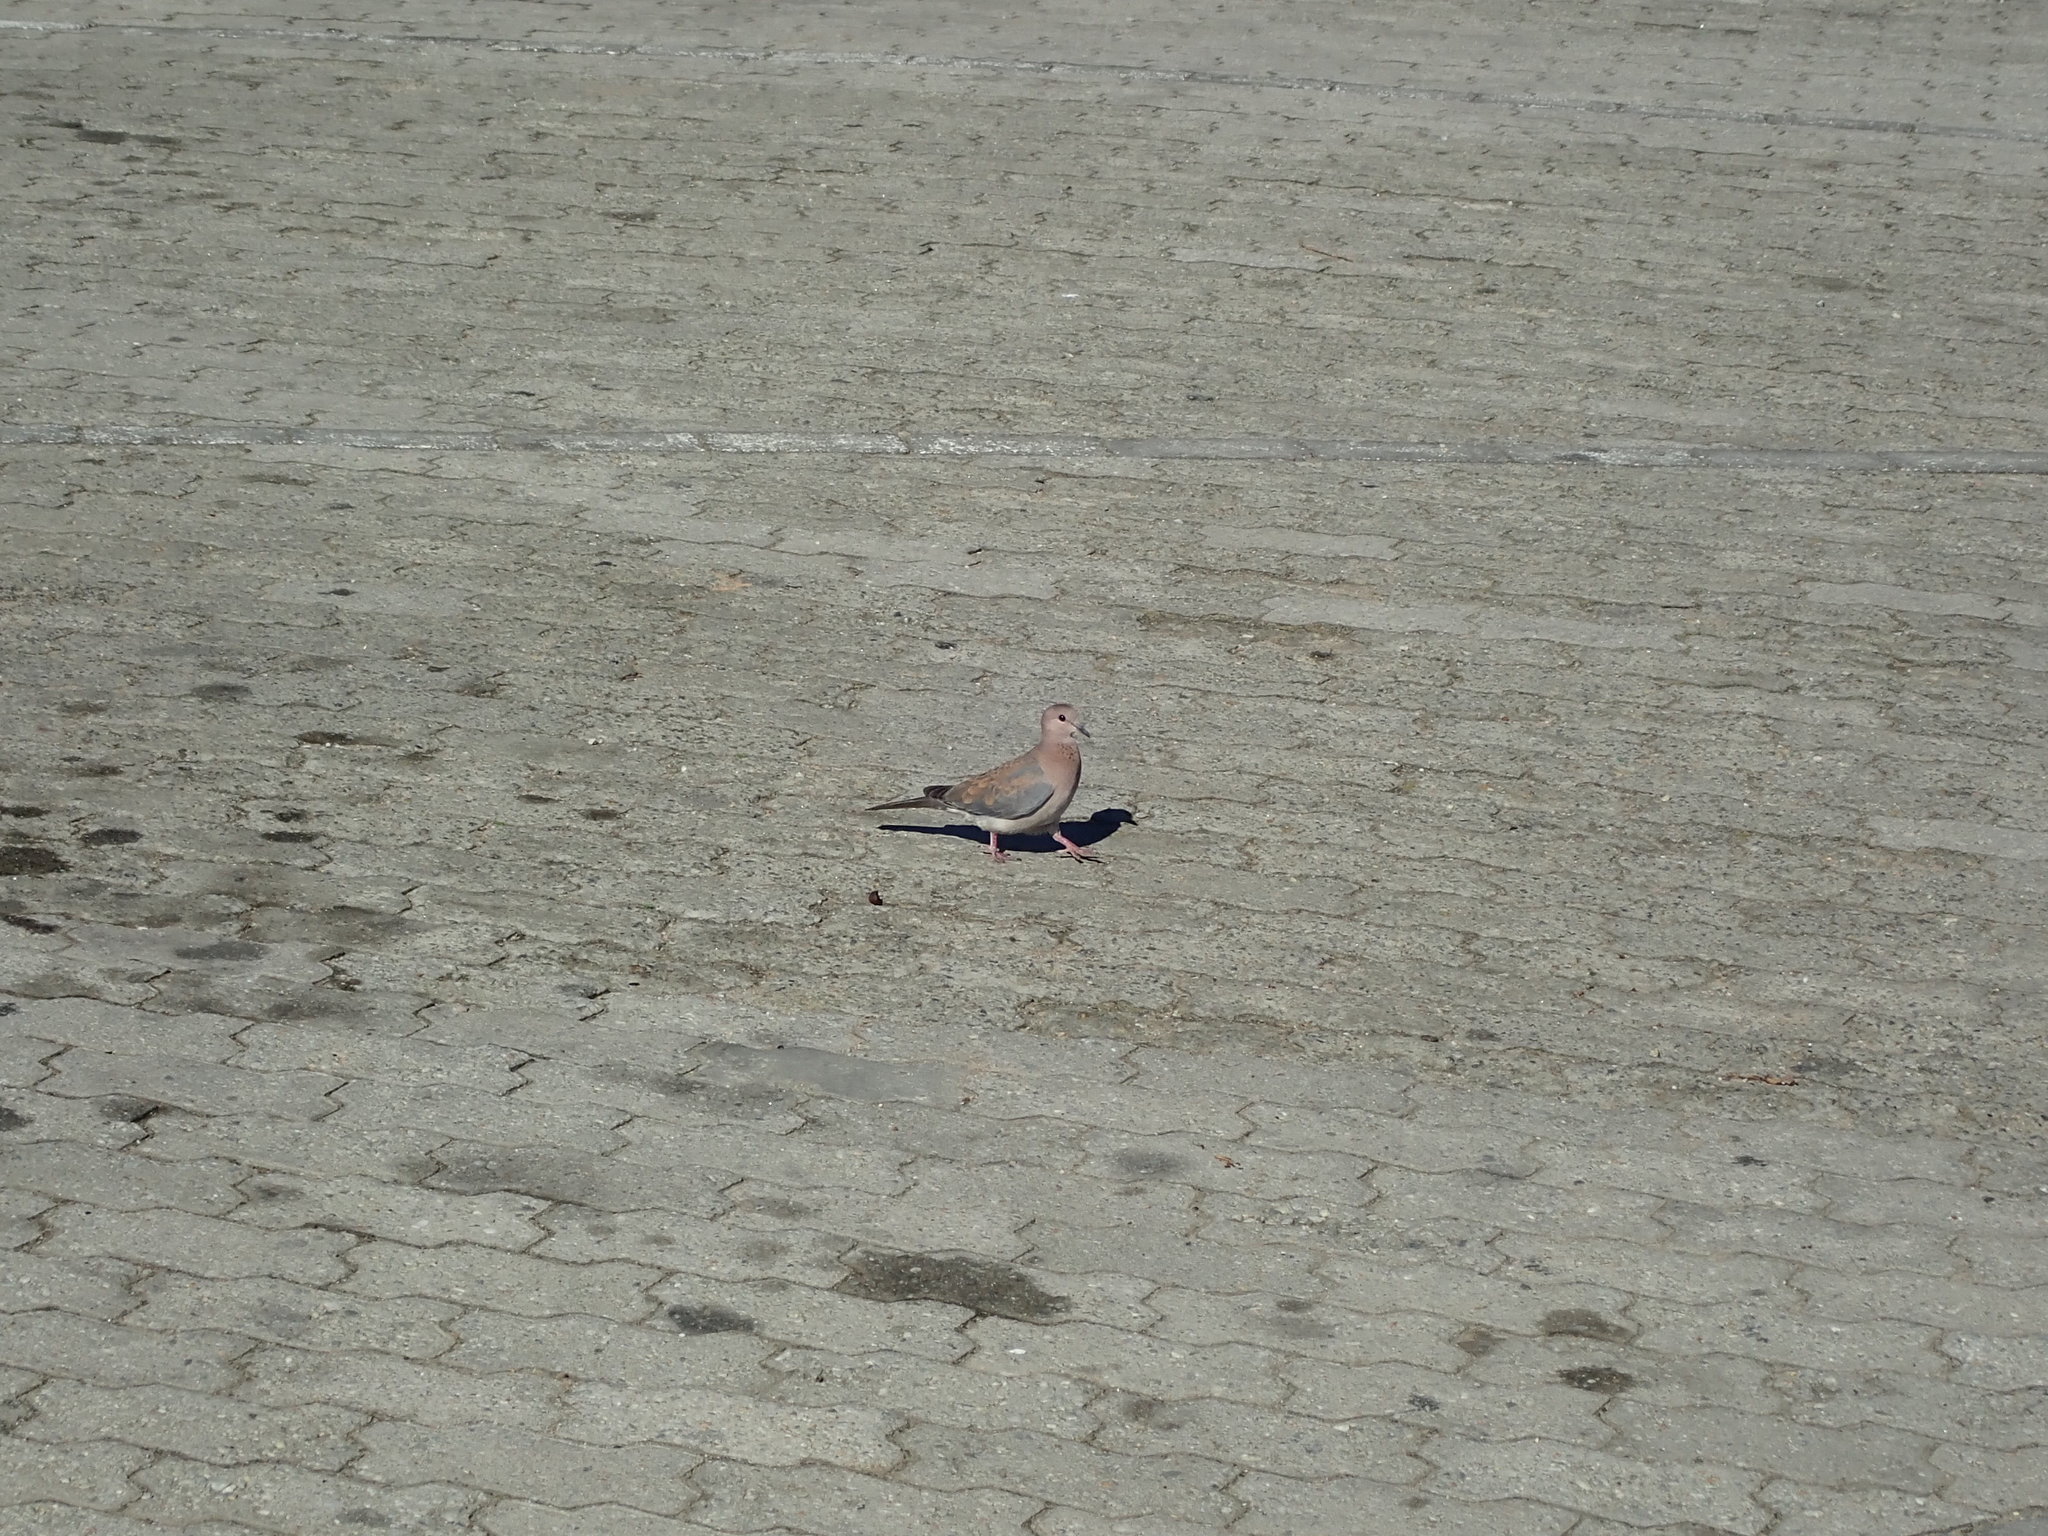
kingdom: Animalia
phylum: Chordata
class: Aves
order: Columbiformes
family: Columbidae
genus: Spilopelia
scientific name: Spilopelia senegalensis
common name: Laughing dove
